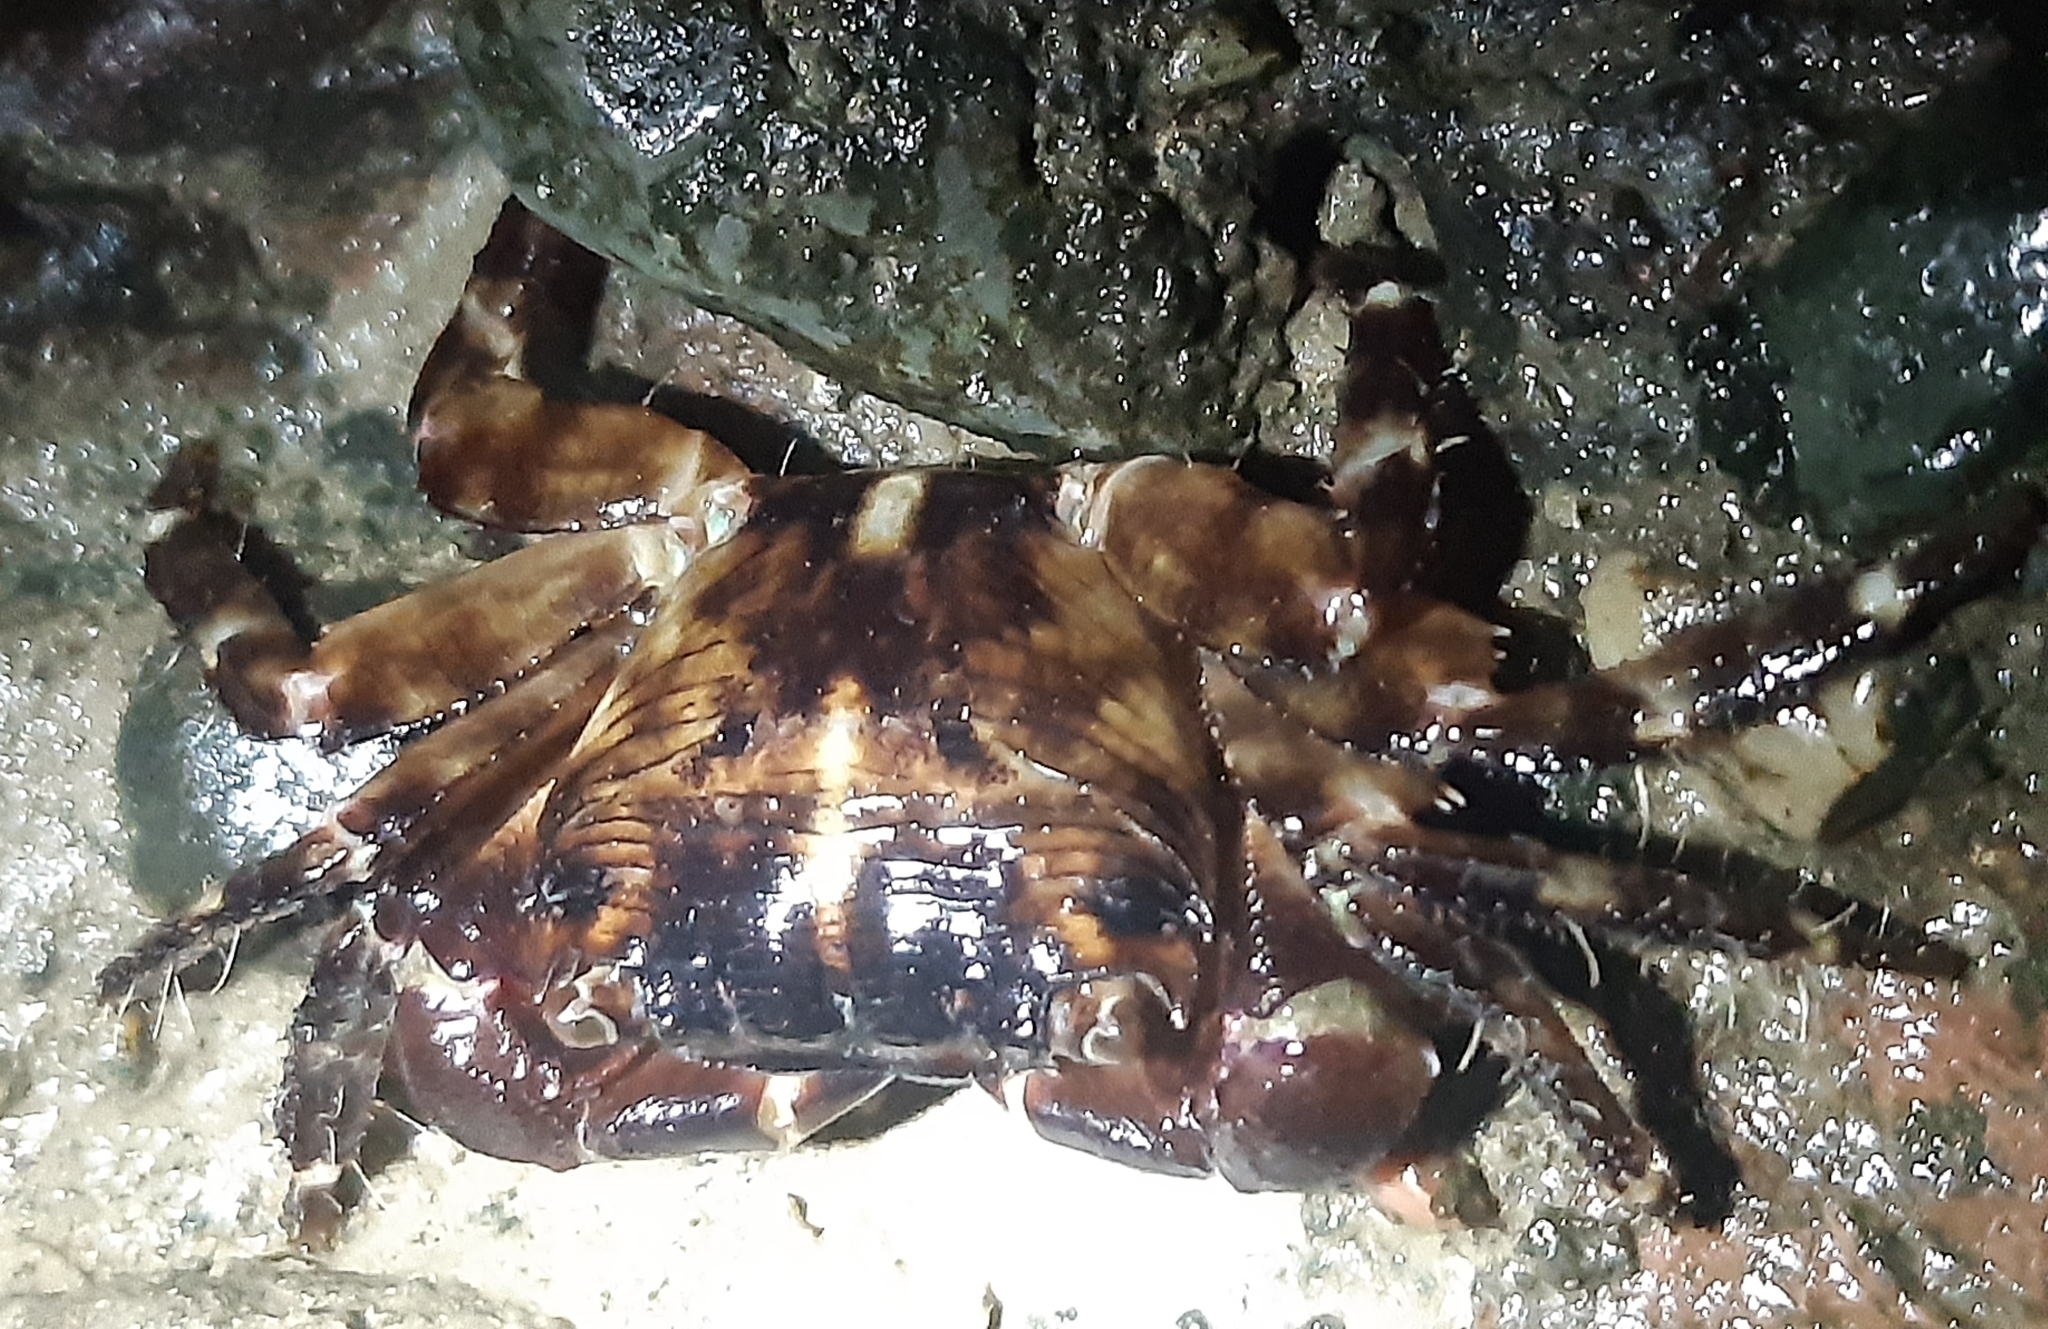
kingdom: Animalia
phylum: Arthropoda
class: Malacostraca
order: Decapoda
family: Grapsidae
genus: Pachygrapsus
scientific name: Pachygrapsus transversus
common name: Mottled shore crab
